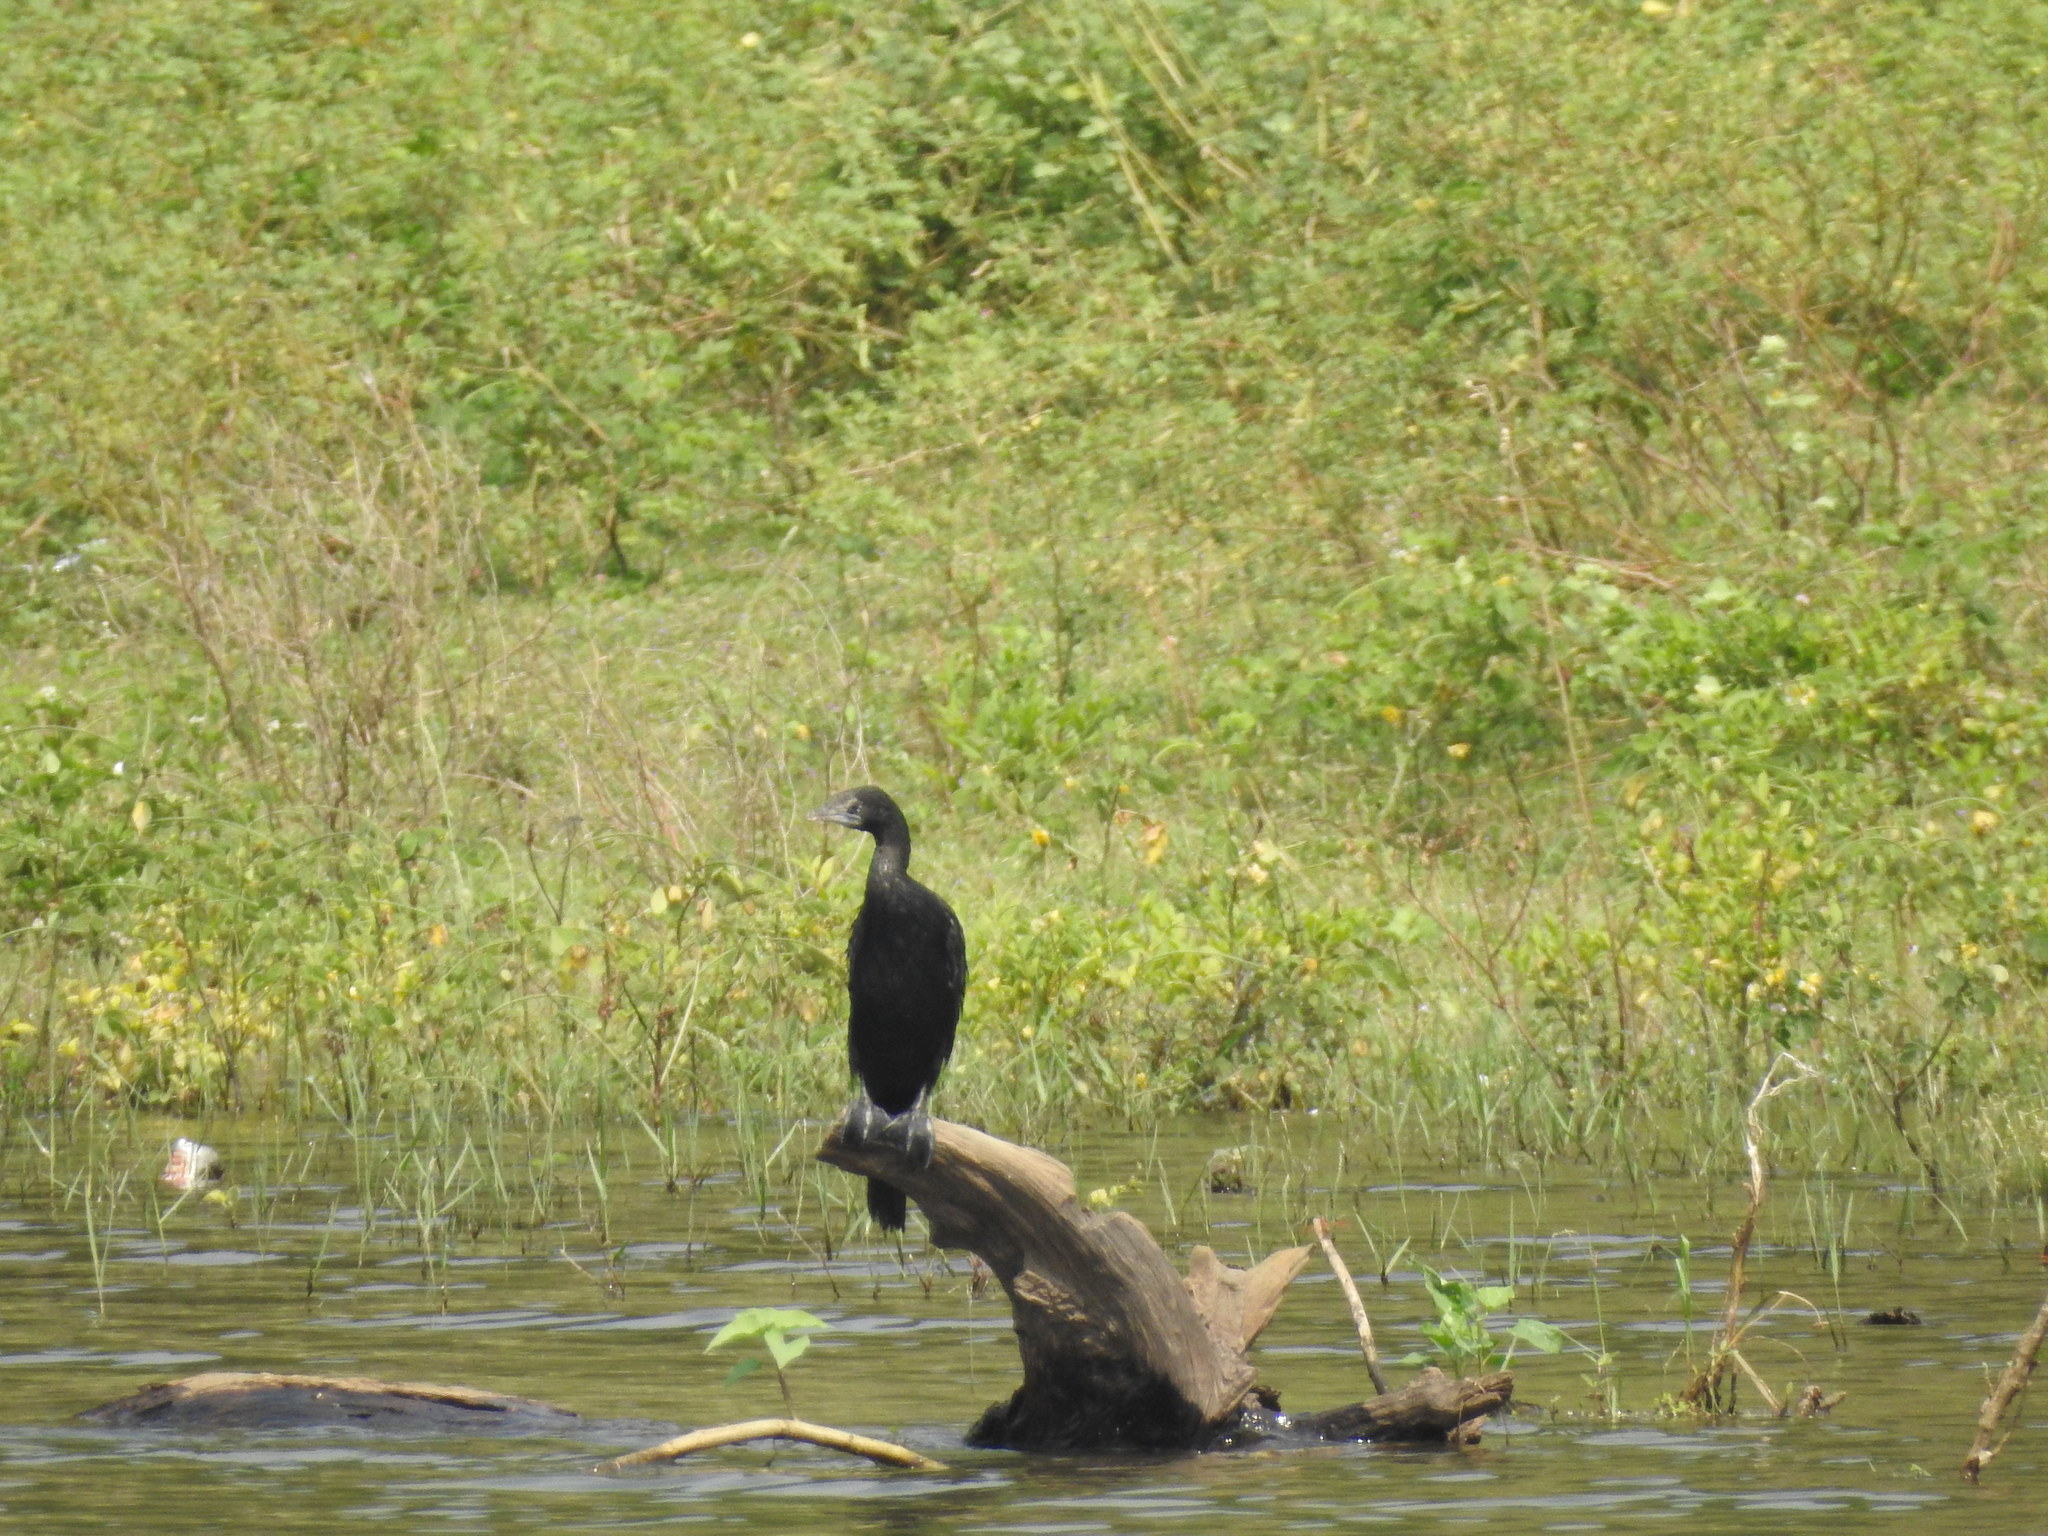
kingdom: Animalia
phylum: Chordata
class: Aves
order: Suliformes
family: Phalacrocoracidae
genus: Microcarbo
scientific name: Microcarbo niger
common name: Little cormorant
